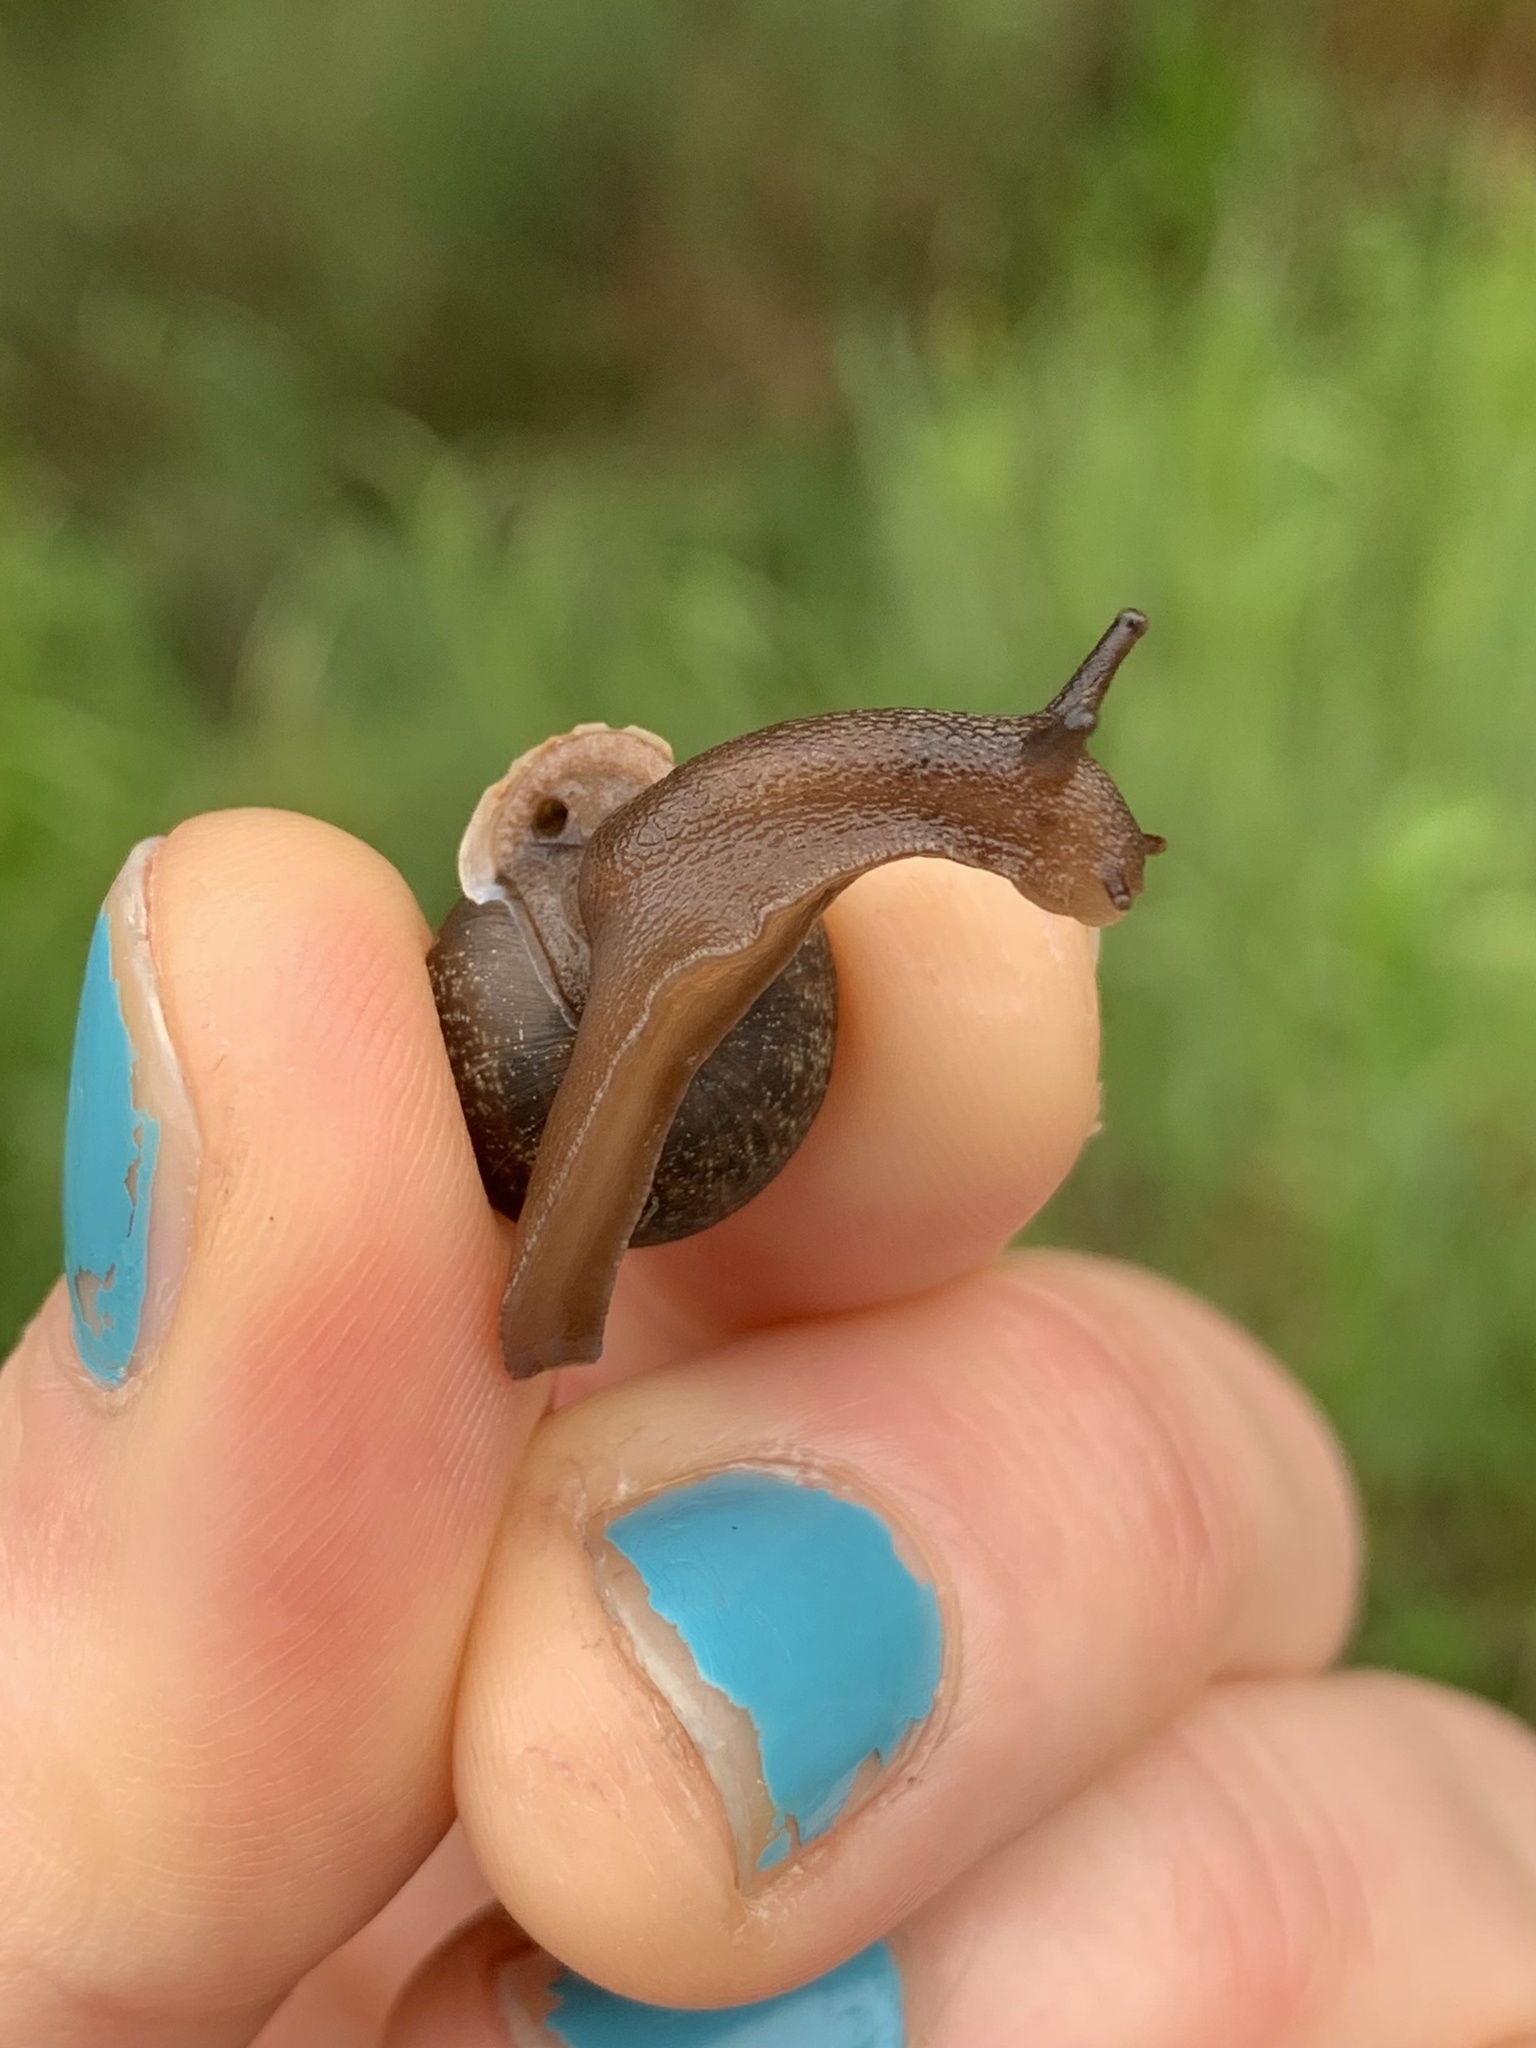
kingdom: Animalia
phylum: Mollusca
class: Gastropoda
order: Stylommatophora
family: Polygyridae
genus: Vespericola
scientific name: Vespericola columbianus
